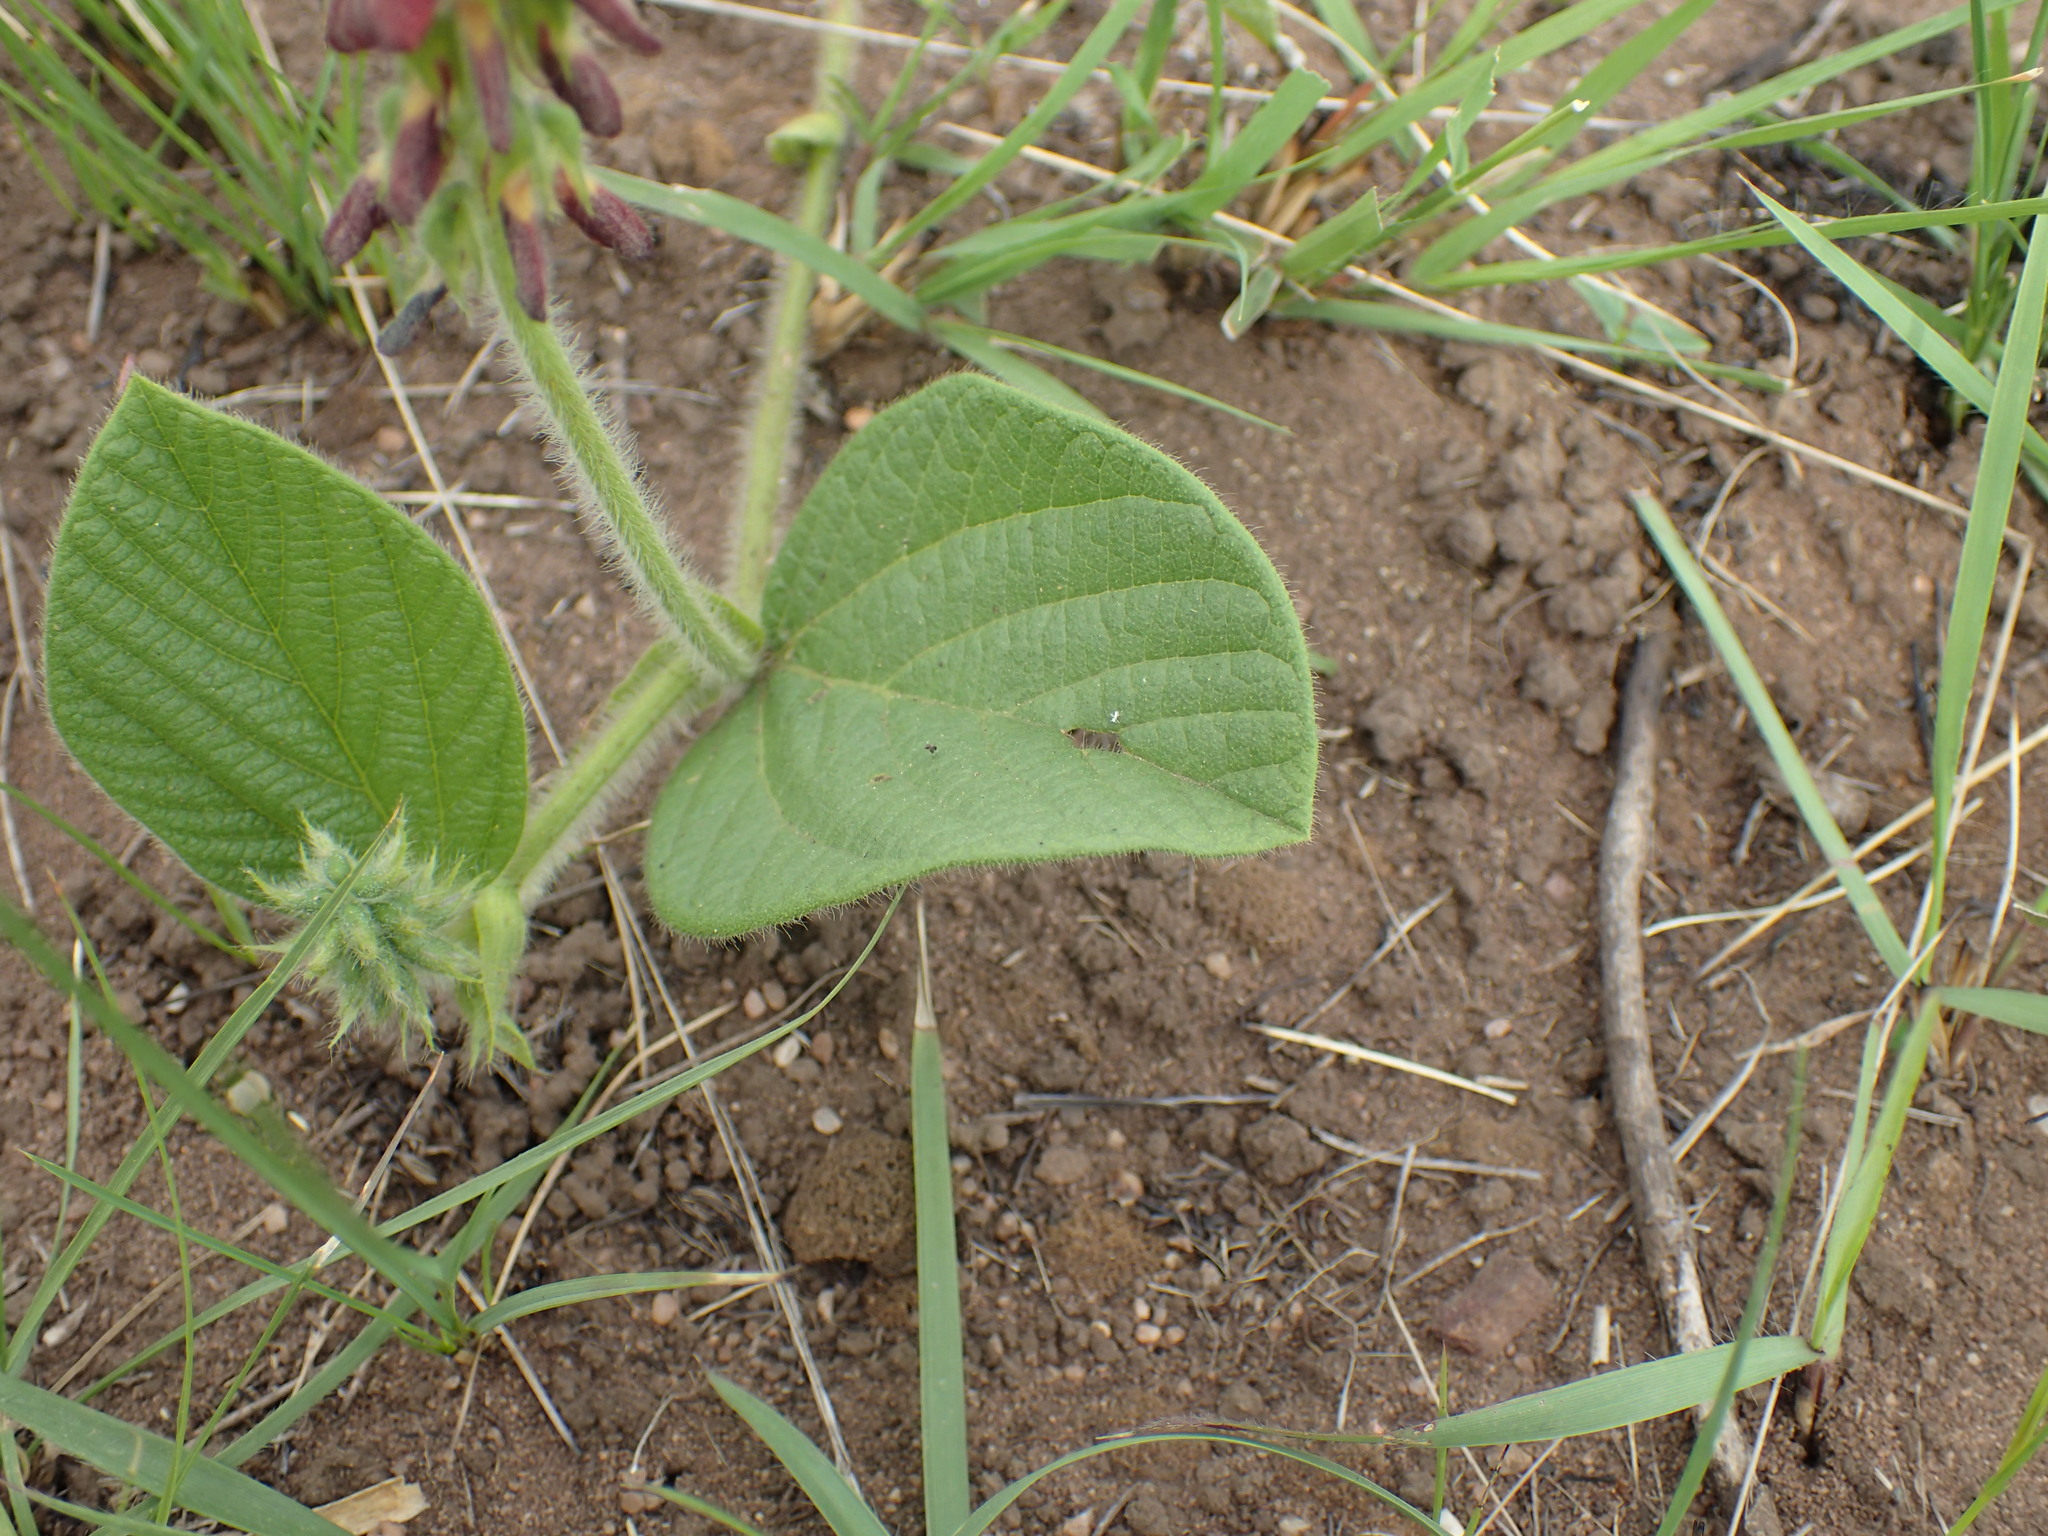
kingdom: Plantae
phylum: Tracheophyta
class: Magnoliopsida
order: Fabales
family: Fabaceae
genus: Eriosema
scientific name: Eriosema cordatum
